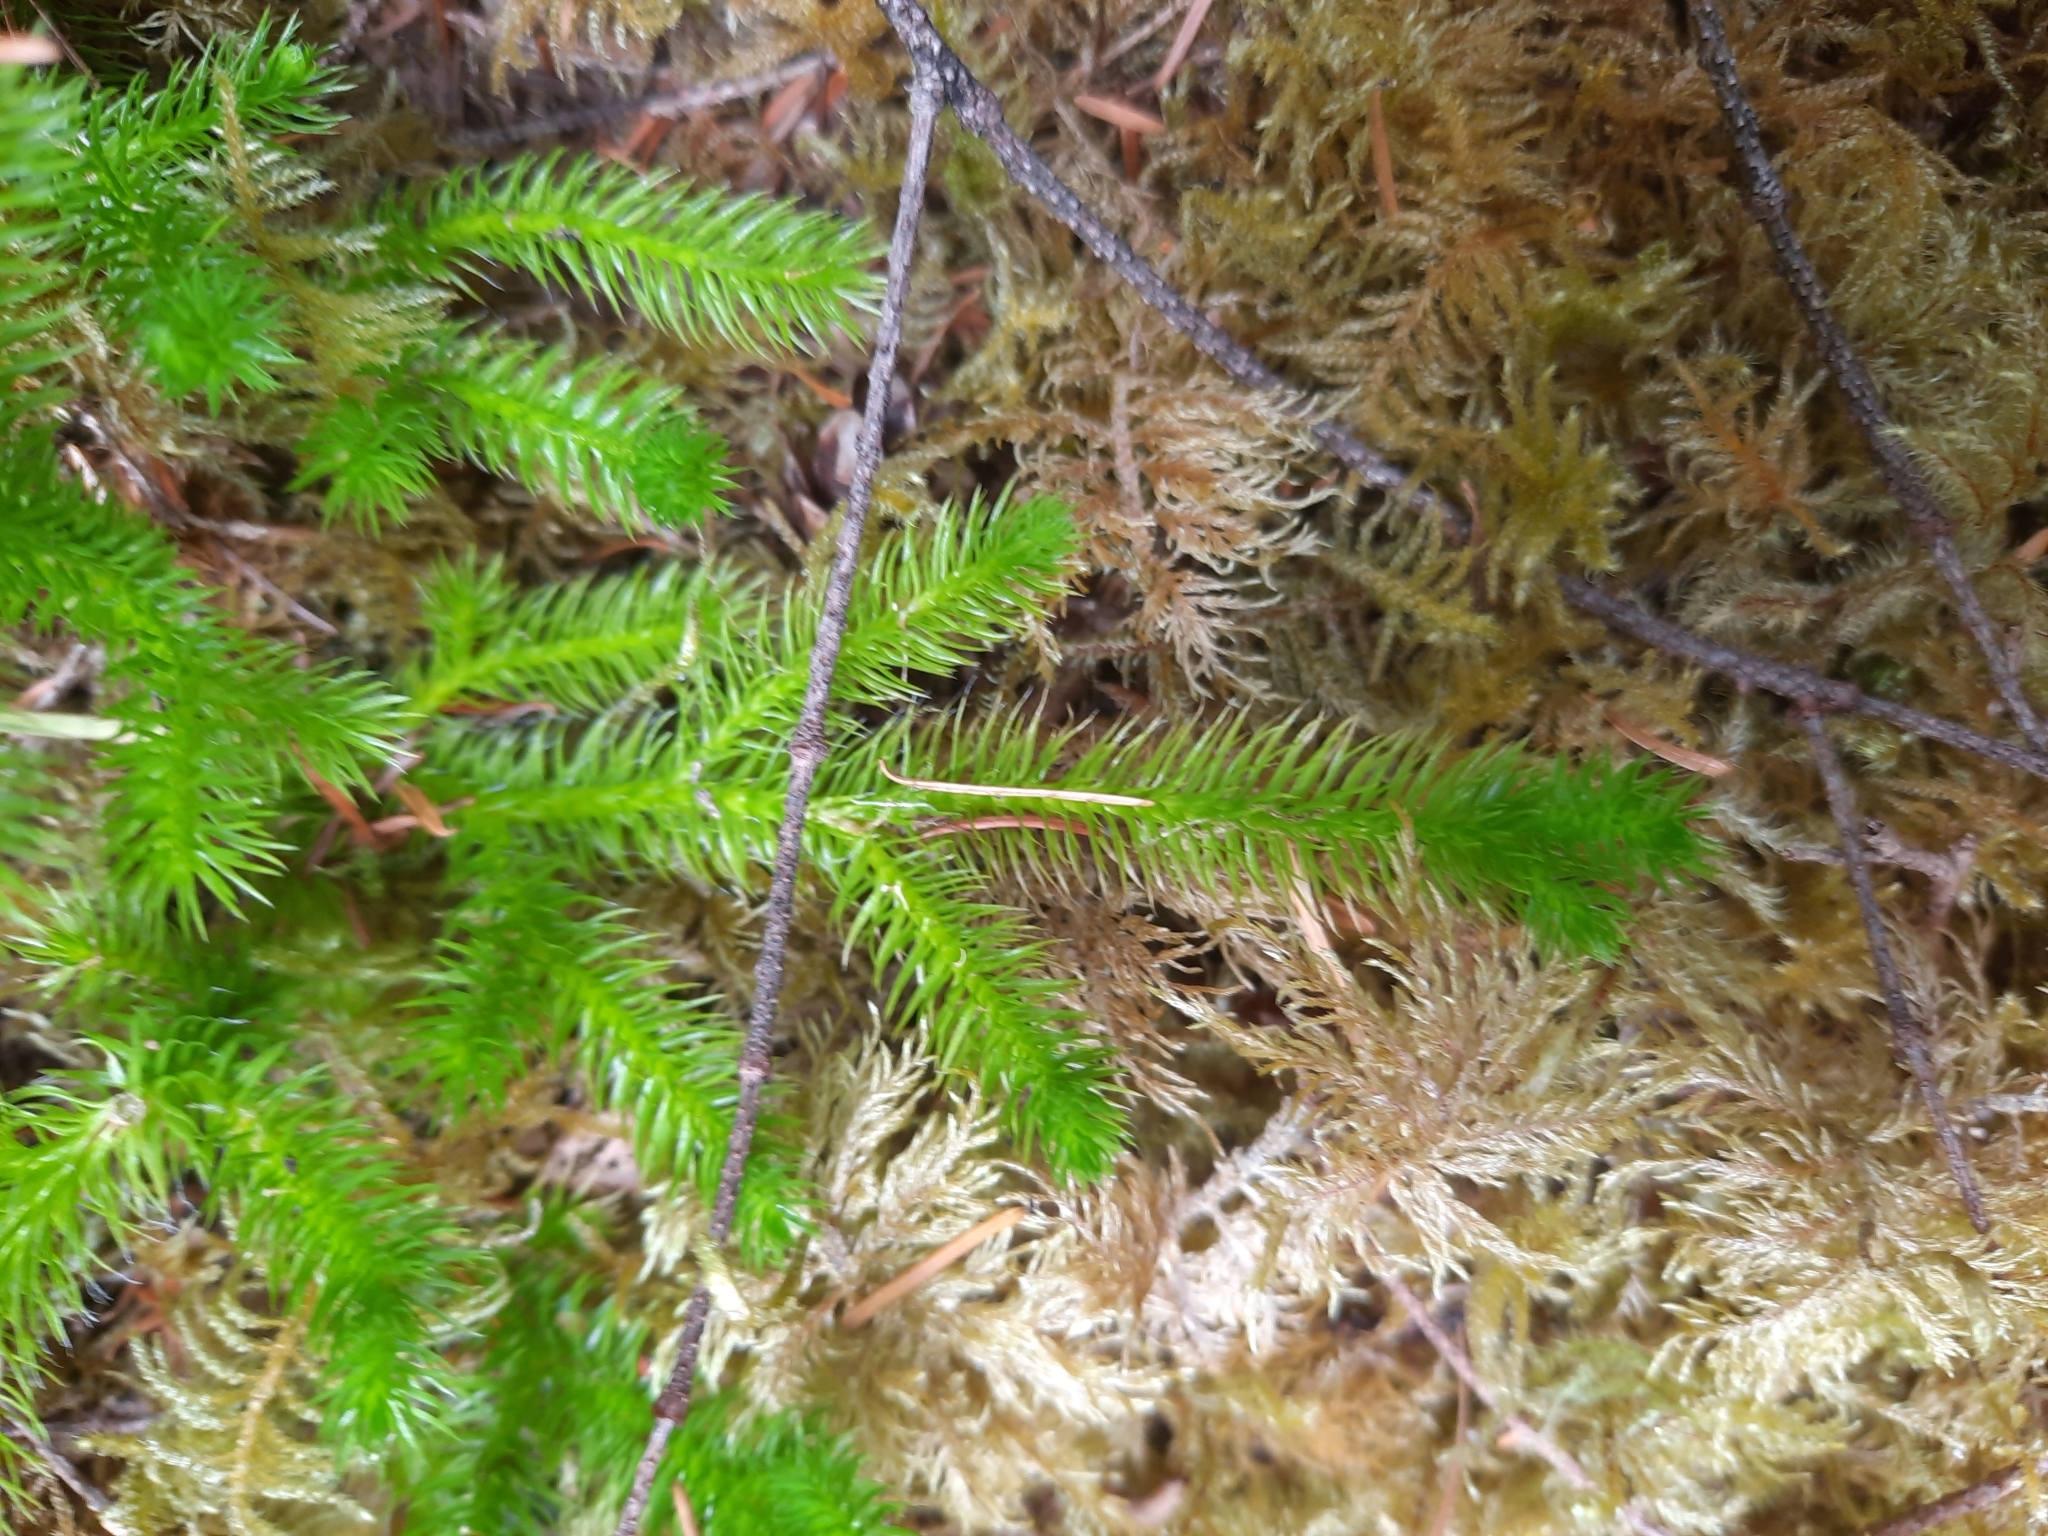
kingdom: Plantae
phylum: Tracheophyta
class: Lycopodiopsida
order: Lycopodiales
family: Lycopodiaceae
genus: Lycopodium
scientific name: Lycopodium clavatum
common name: Stag's-horn clubmoss
